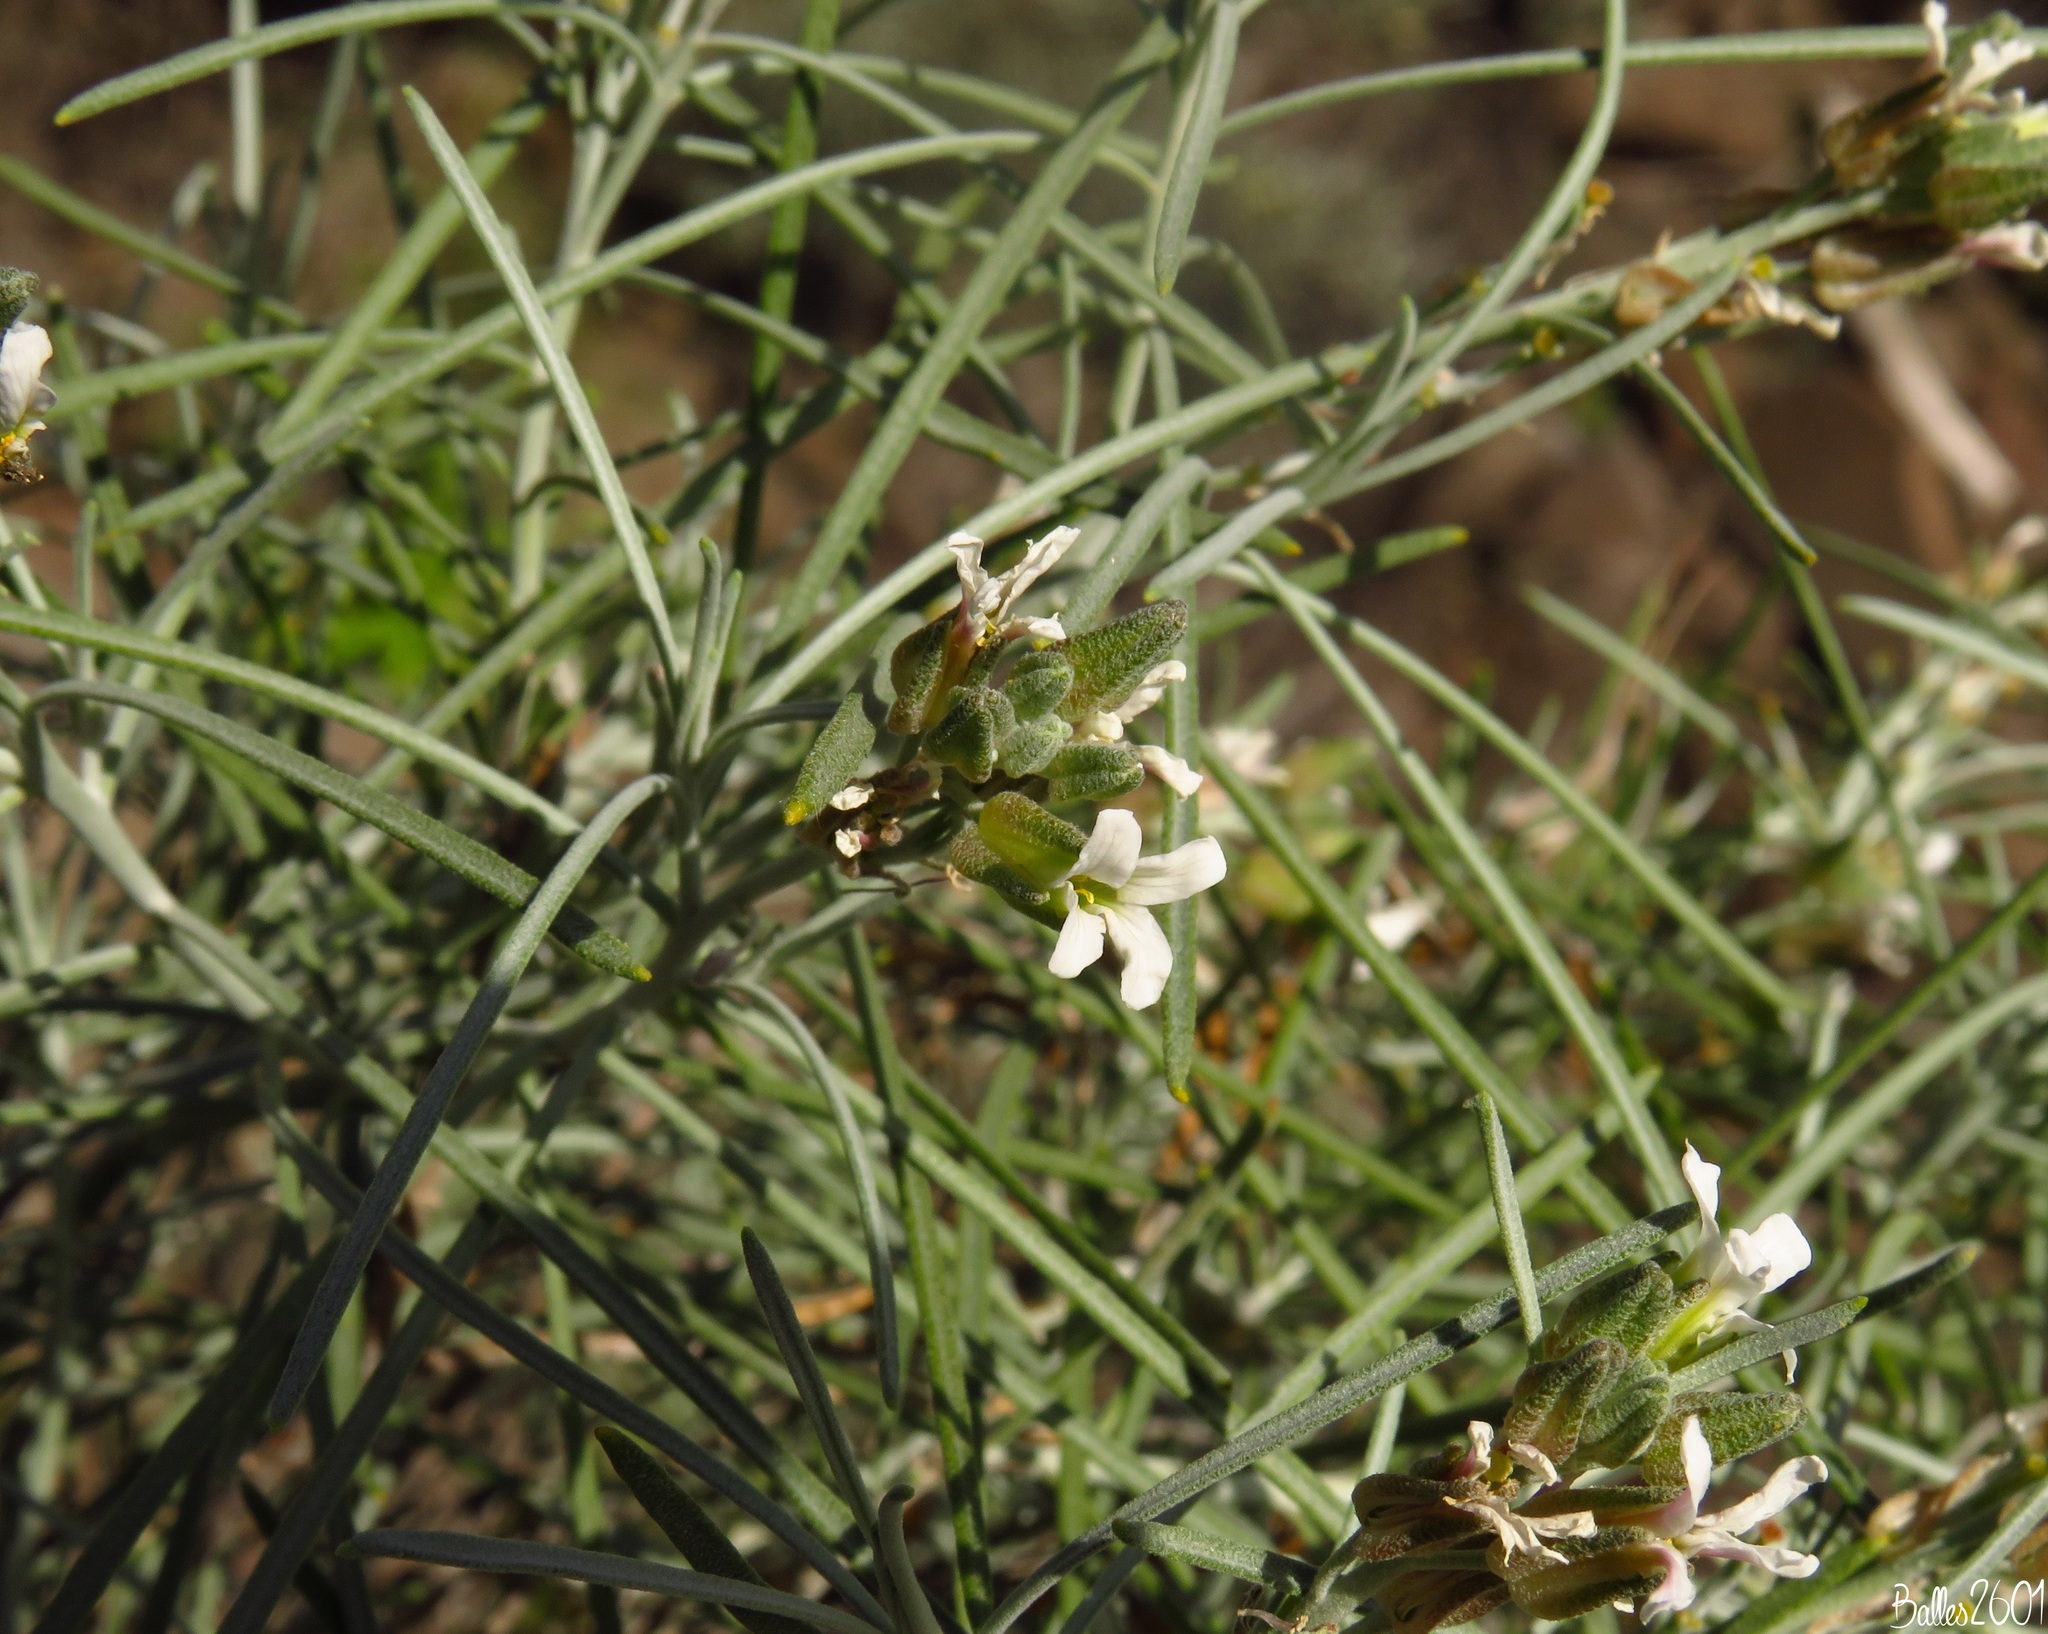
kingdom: Plantae
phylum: Tracheophyta
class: Magnoliopsida
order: Brassicales
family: Brassicaceae
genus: Parolinia
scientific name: Parolinia ornata
